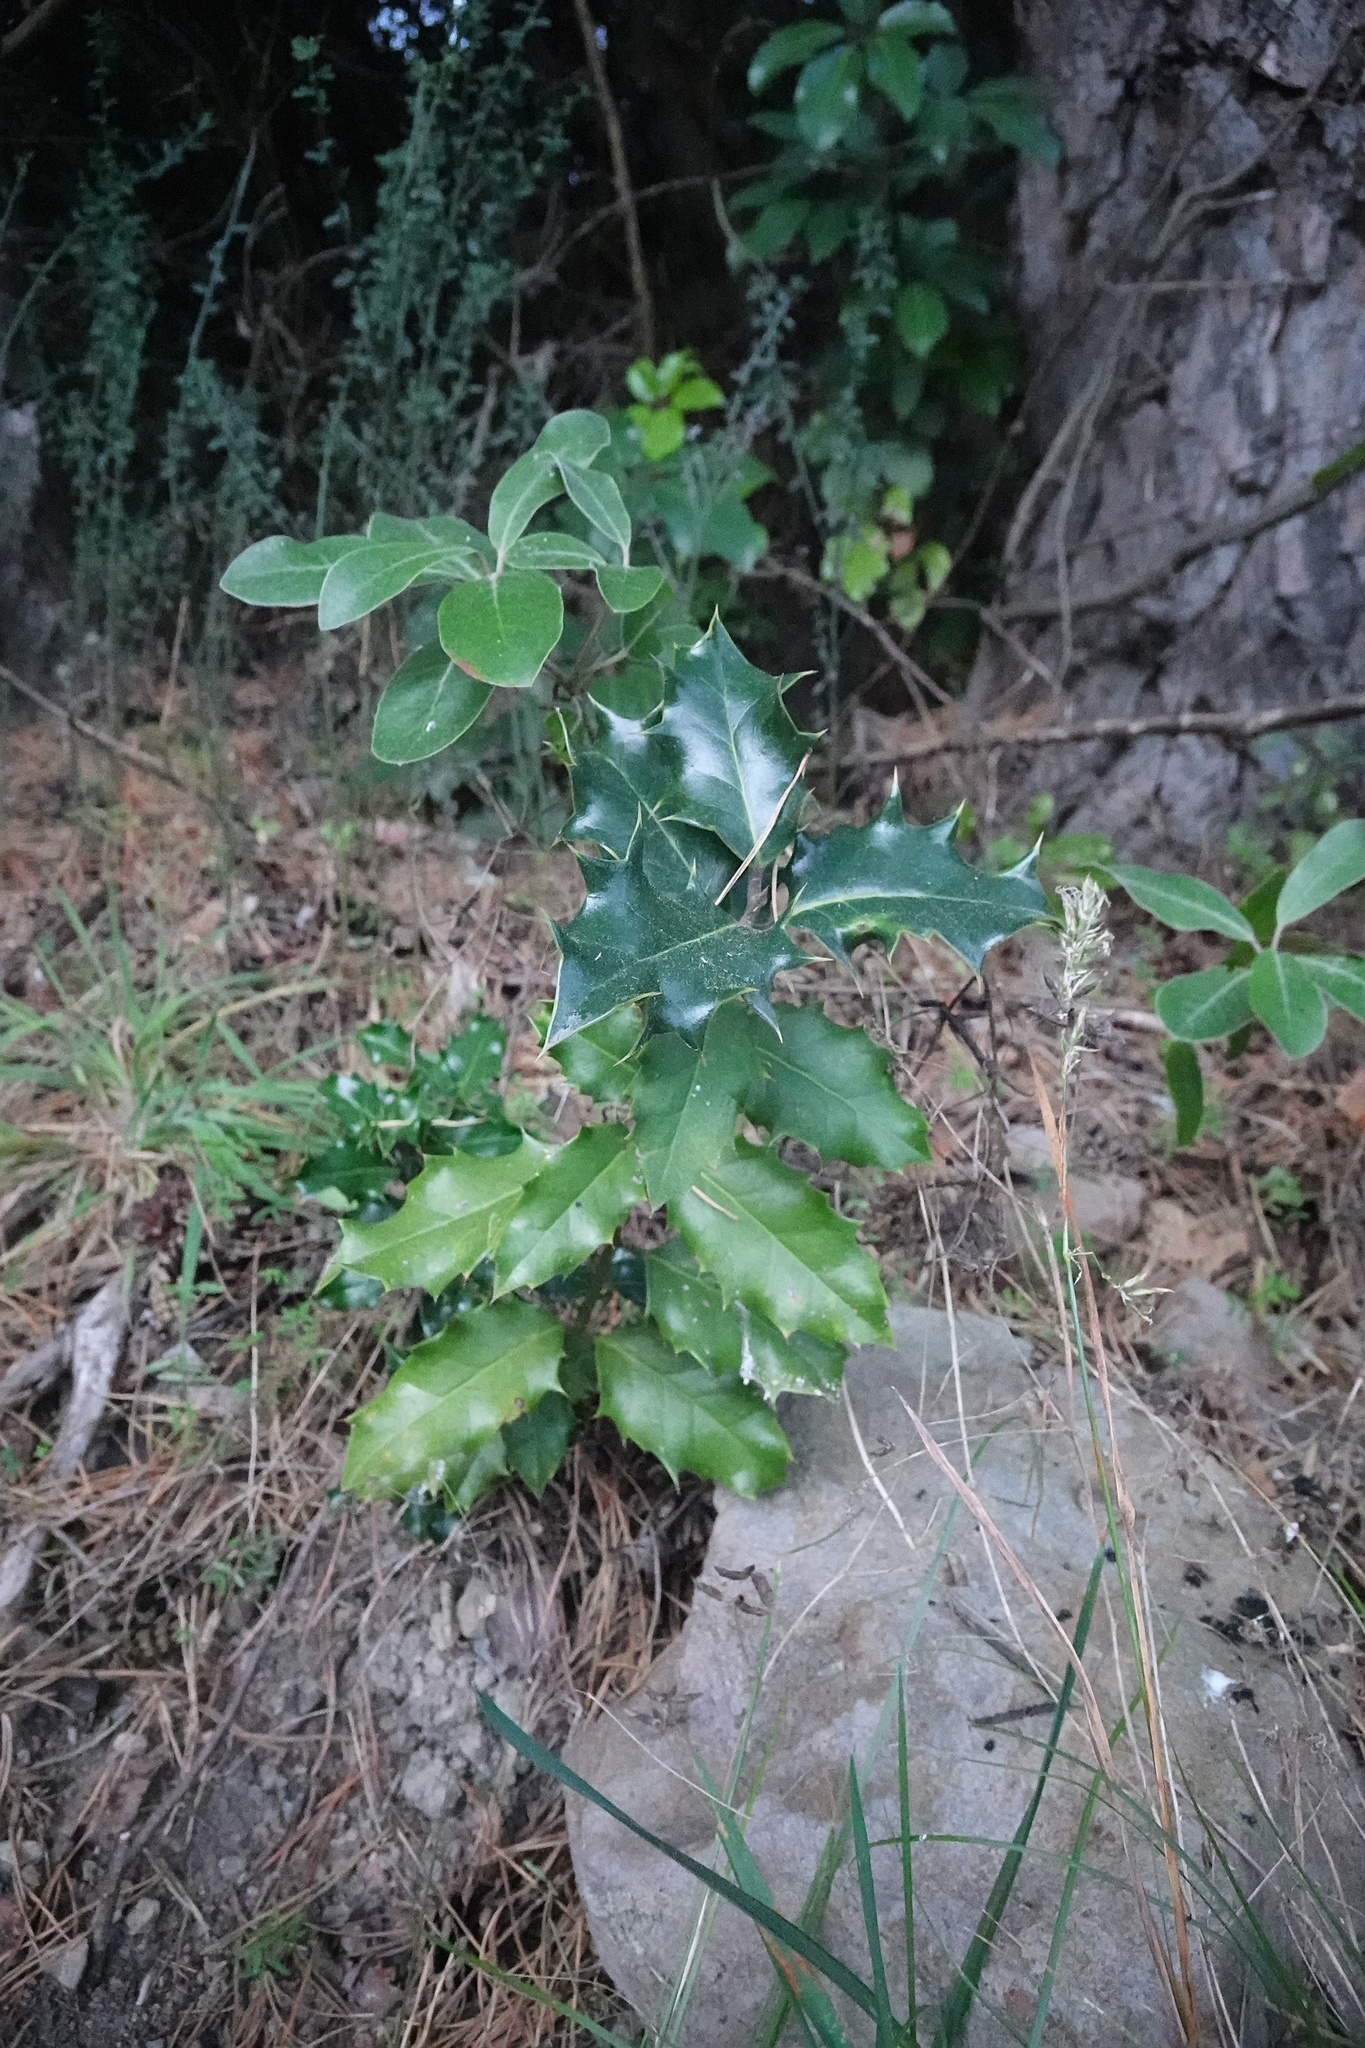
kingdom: Plantae
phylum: Tracheophyta
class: Magnoliopsida
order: Apiales
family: Pittosporaceae
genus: Pittosporum
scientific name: Pittosporum ralphii
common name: Ralph's desertwillow
